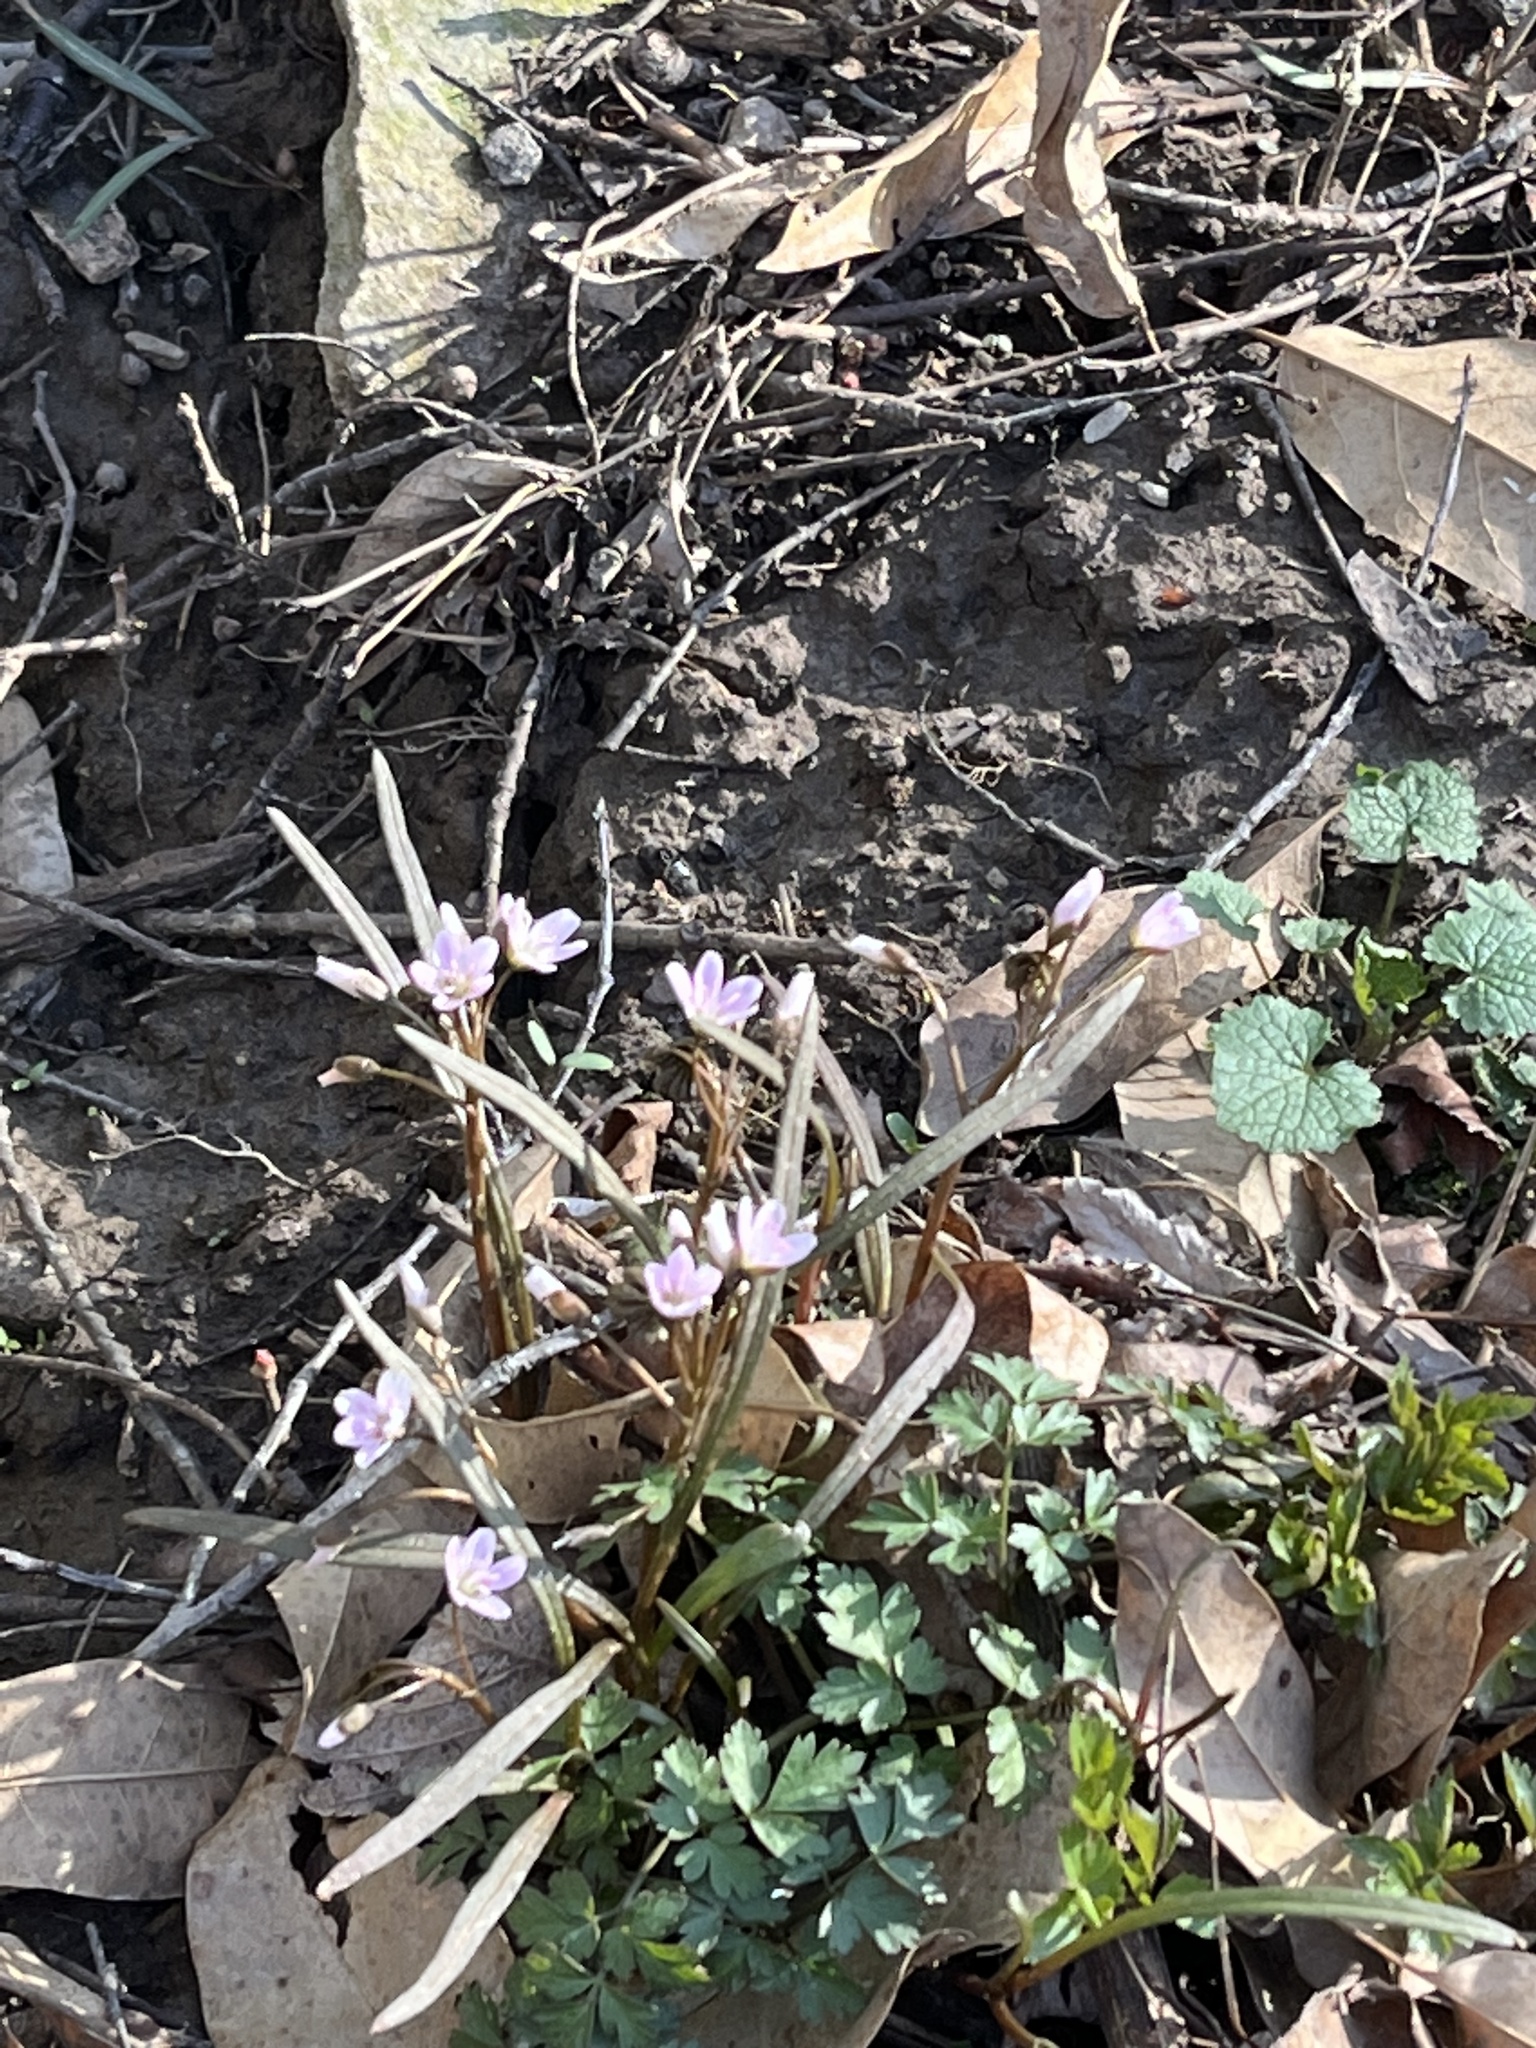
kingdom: Plantae
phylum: Tracheophyta
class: Magnoliopsida
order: Caryophyllales
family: Montiaceae
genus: Claytonia
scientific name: Claytonia virginica
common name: Virginia springbeauty
